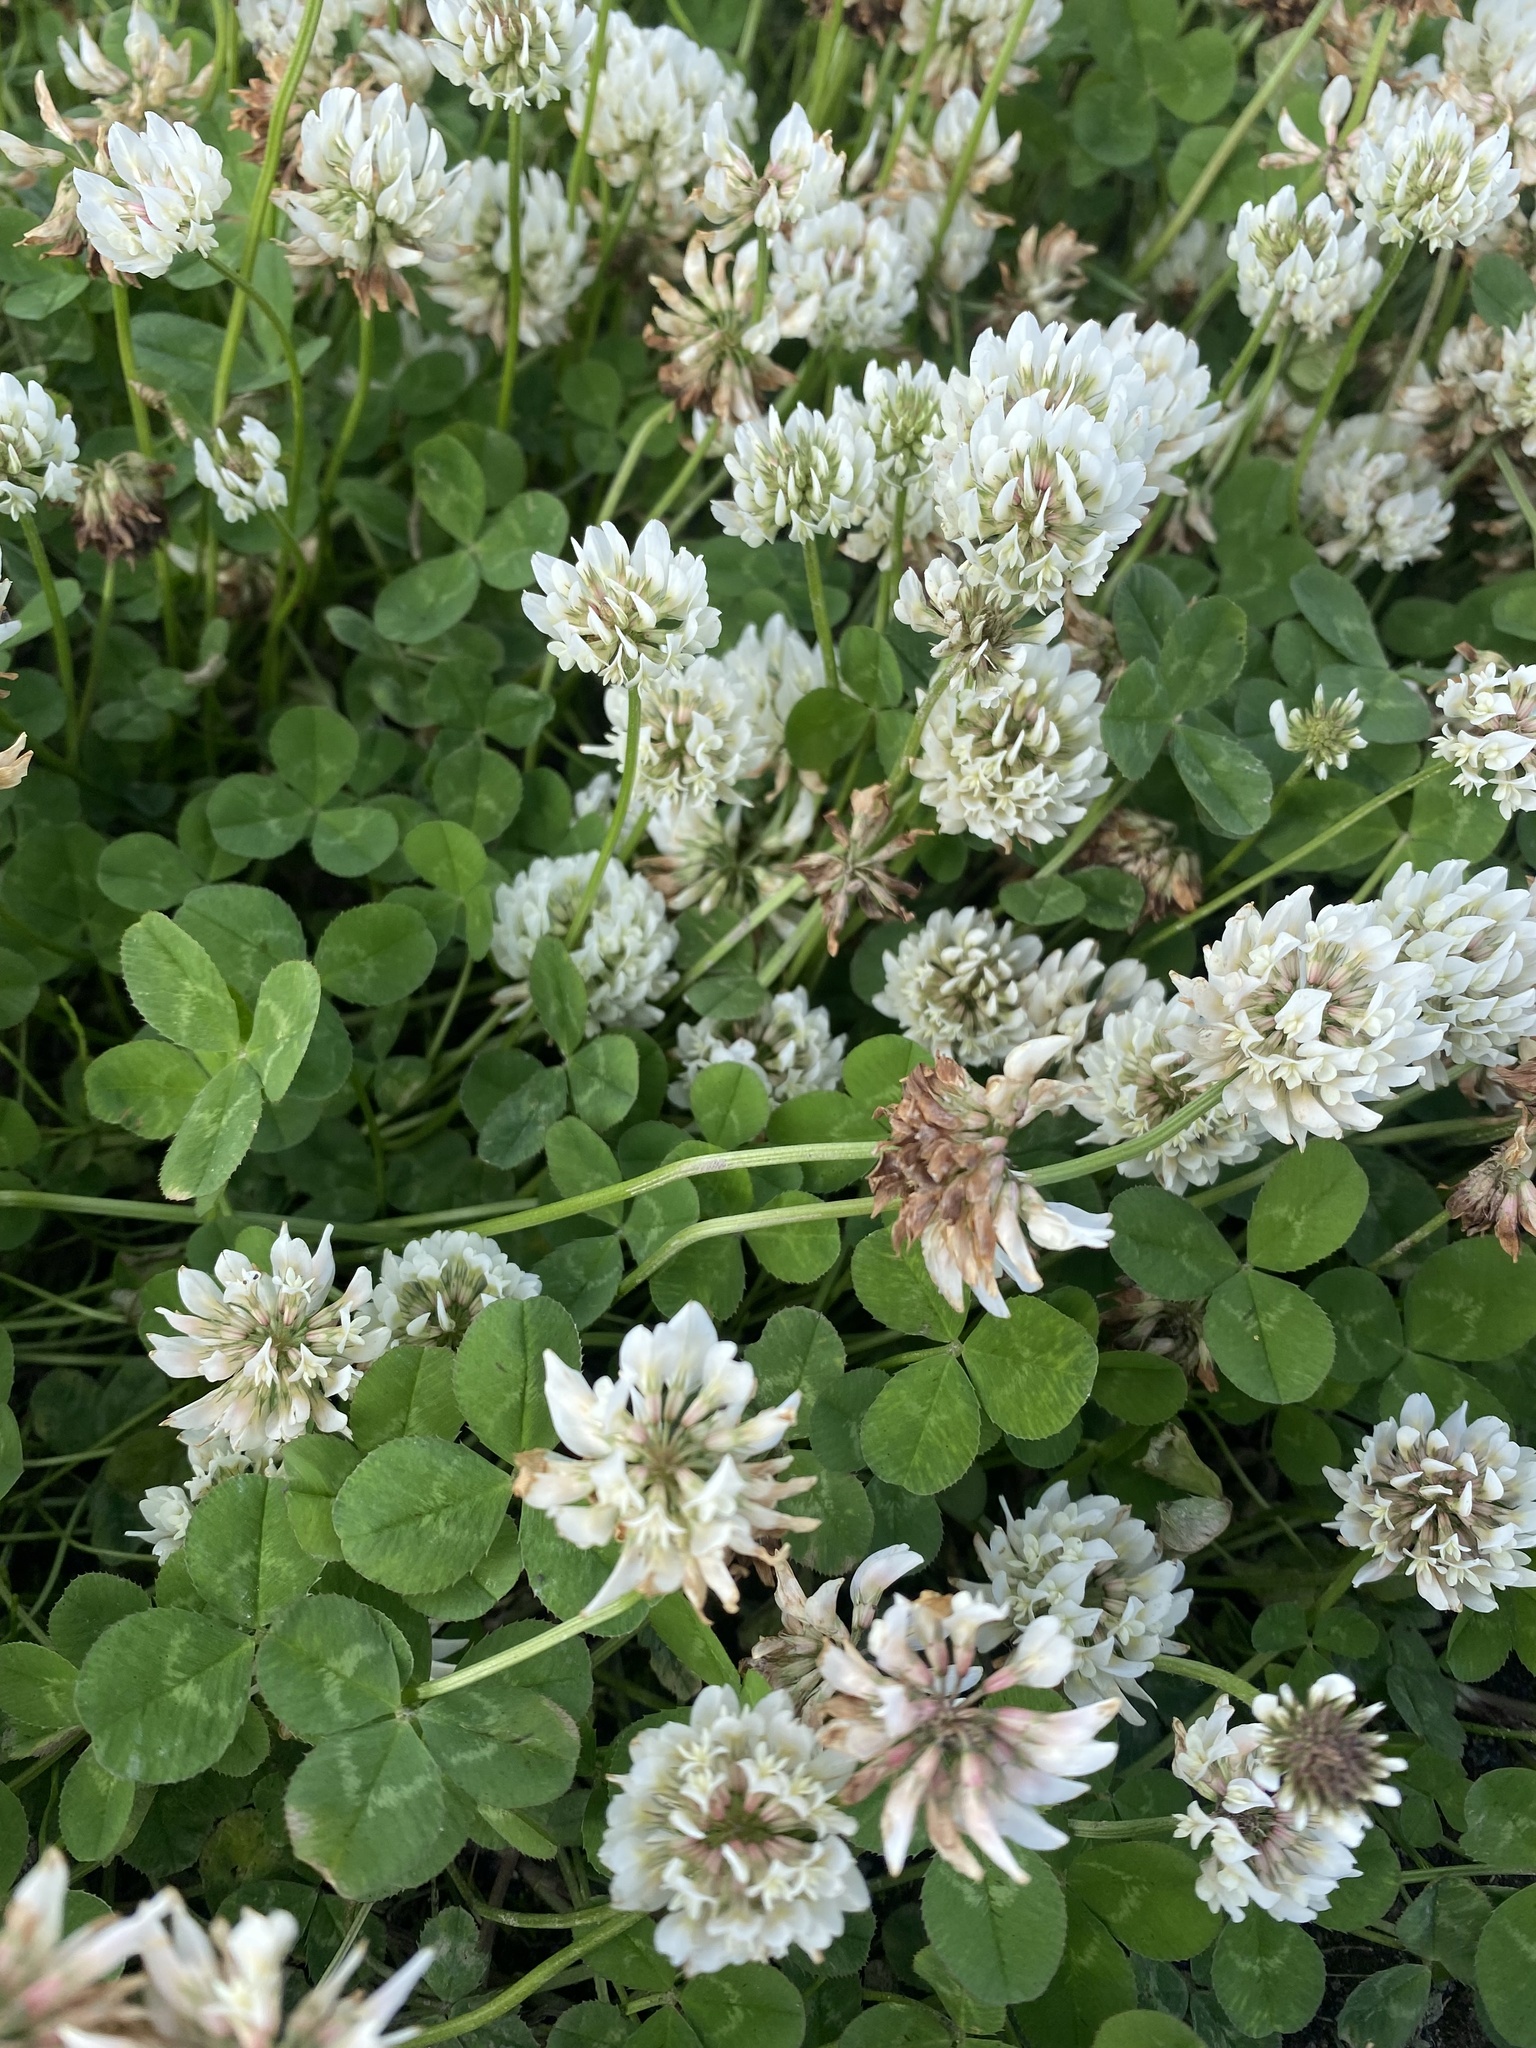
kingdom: Plantae
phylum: Tracheophyta
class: Magnoliopsida
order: Fabales
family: Fabaceae
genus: Trifolium
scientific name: Trifolium repens
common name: White clover
